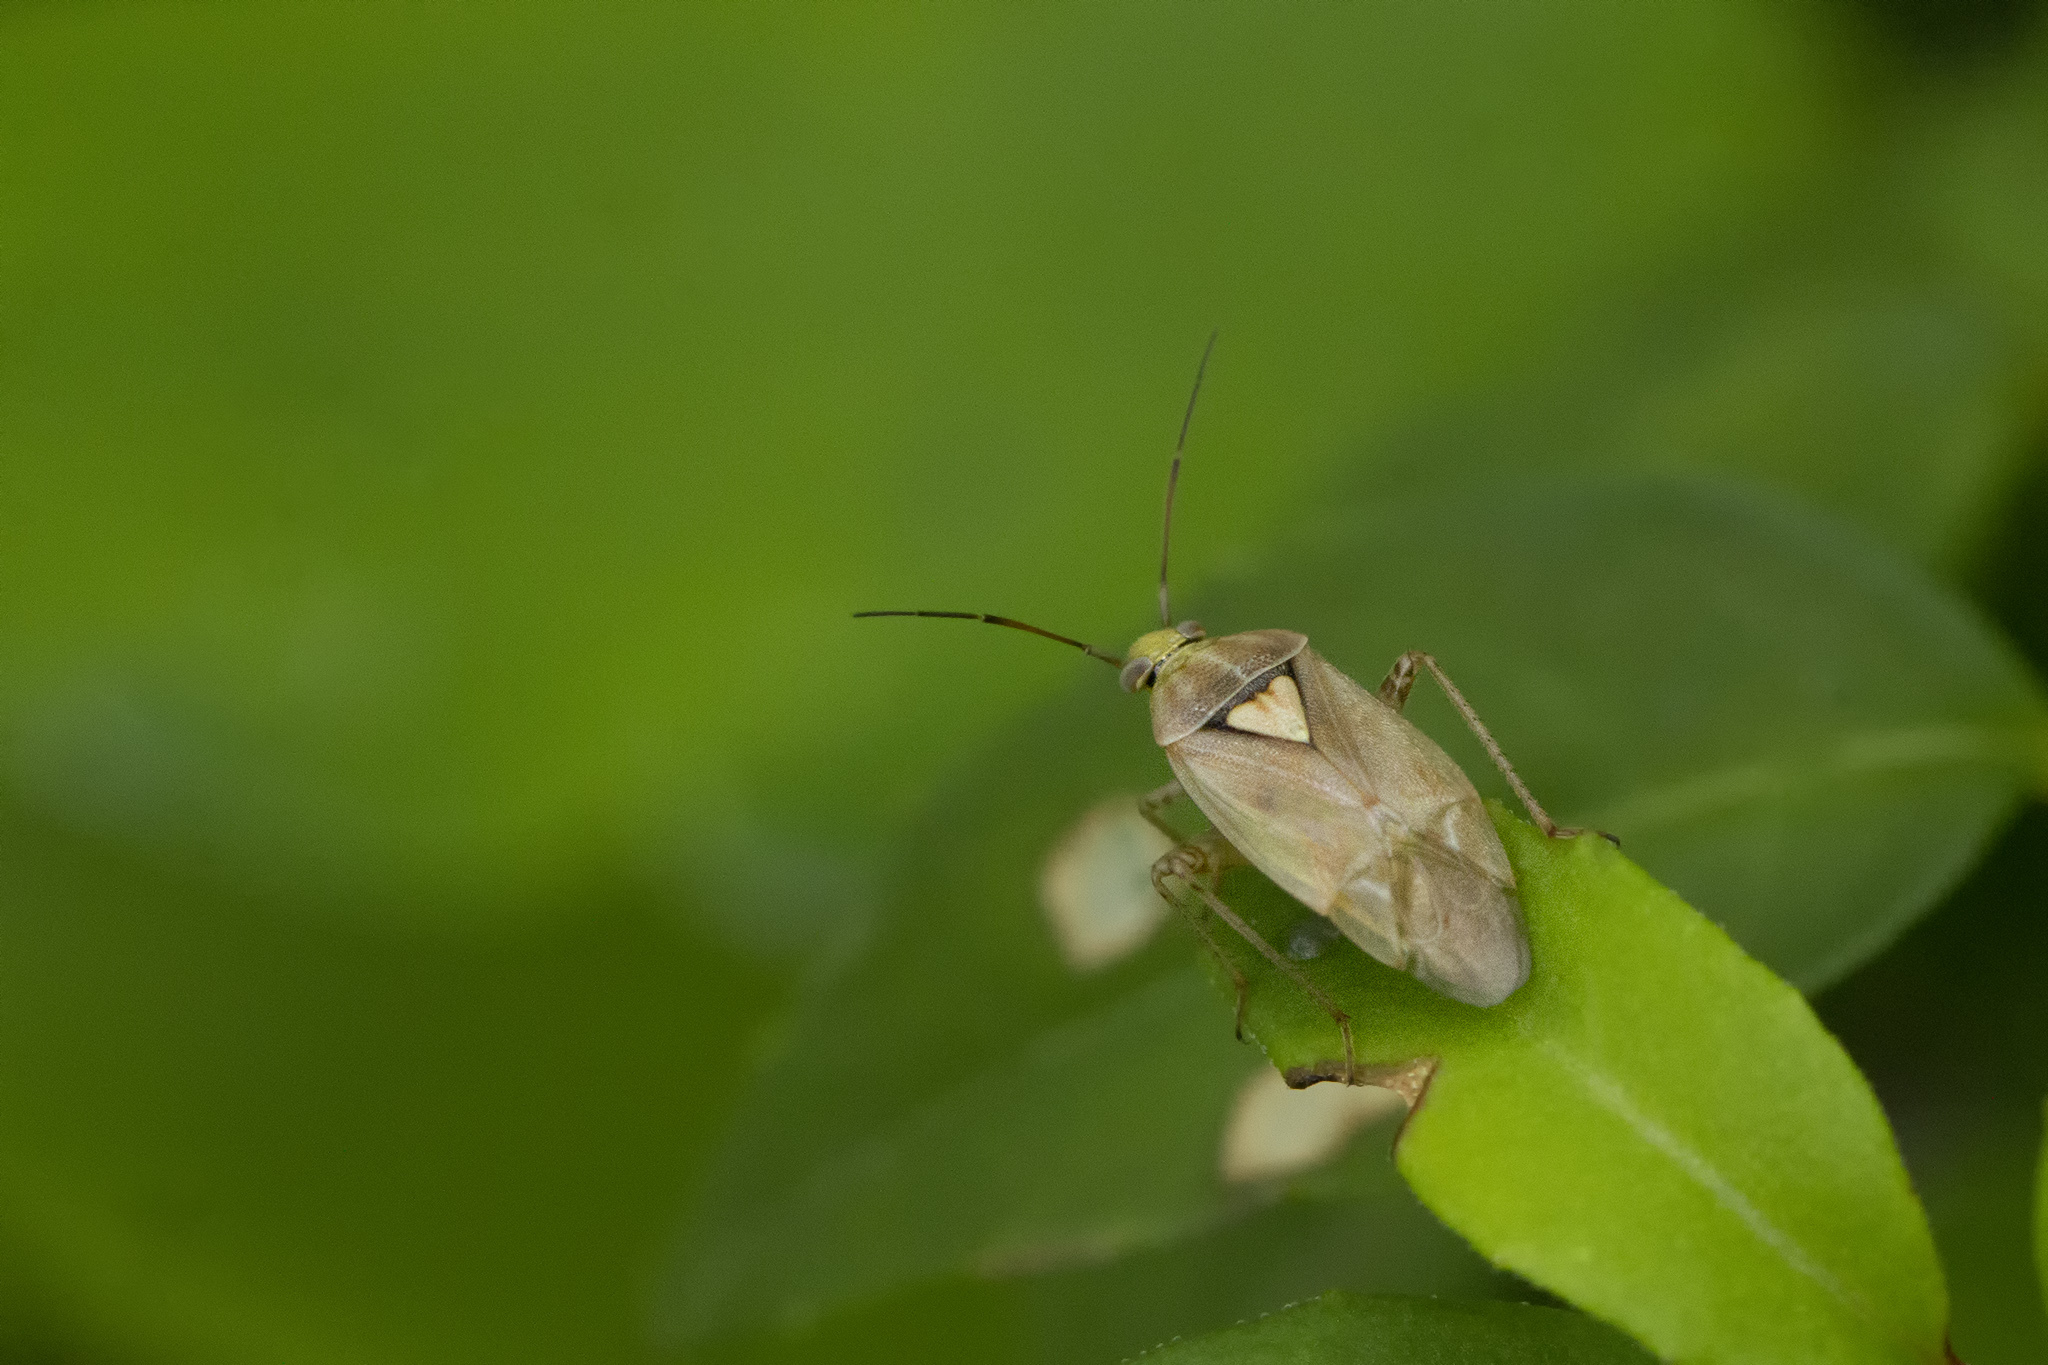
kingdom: Animalia
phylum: Arthropoda
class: Insecta
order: Hemiptera
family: Miridae
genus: Lygus
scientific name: Lygus rugulipennis
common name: European tarnished plant bug
